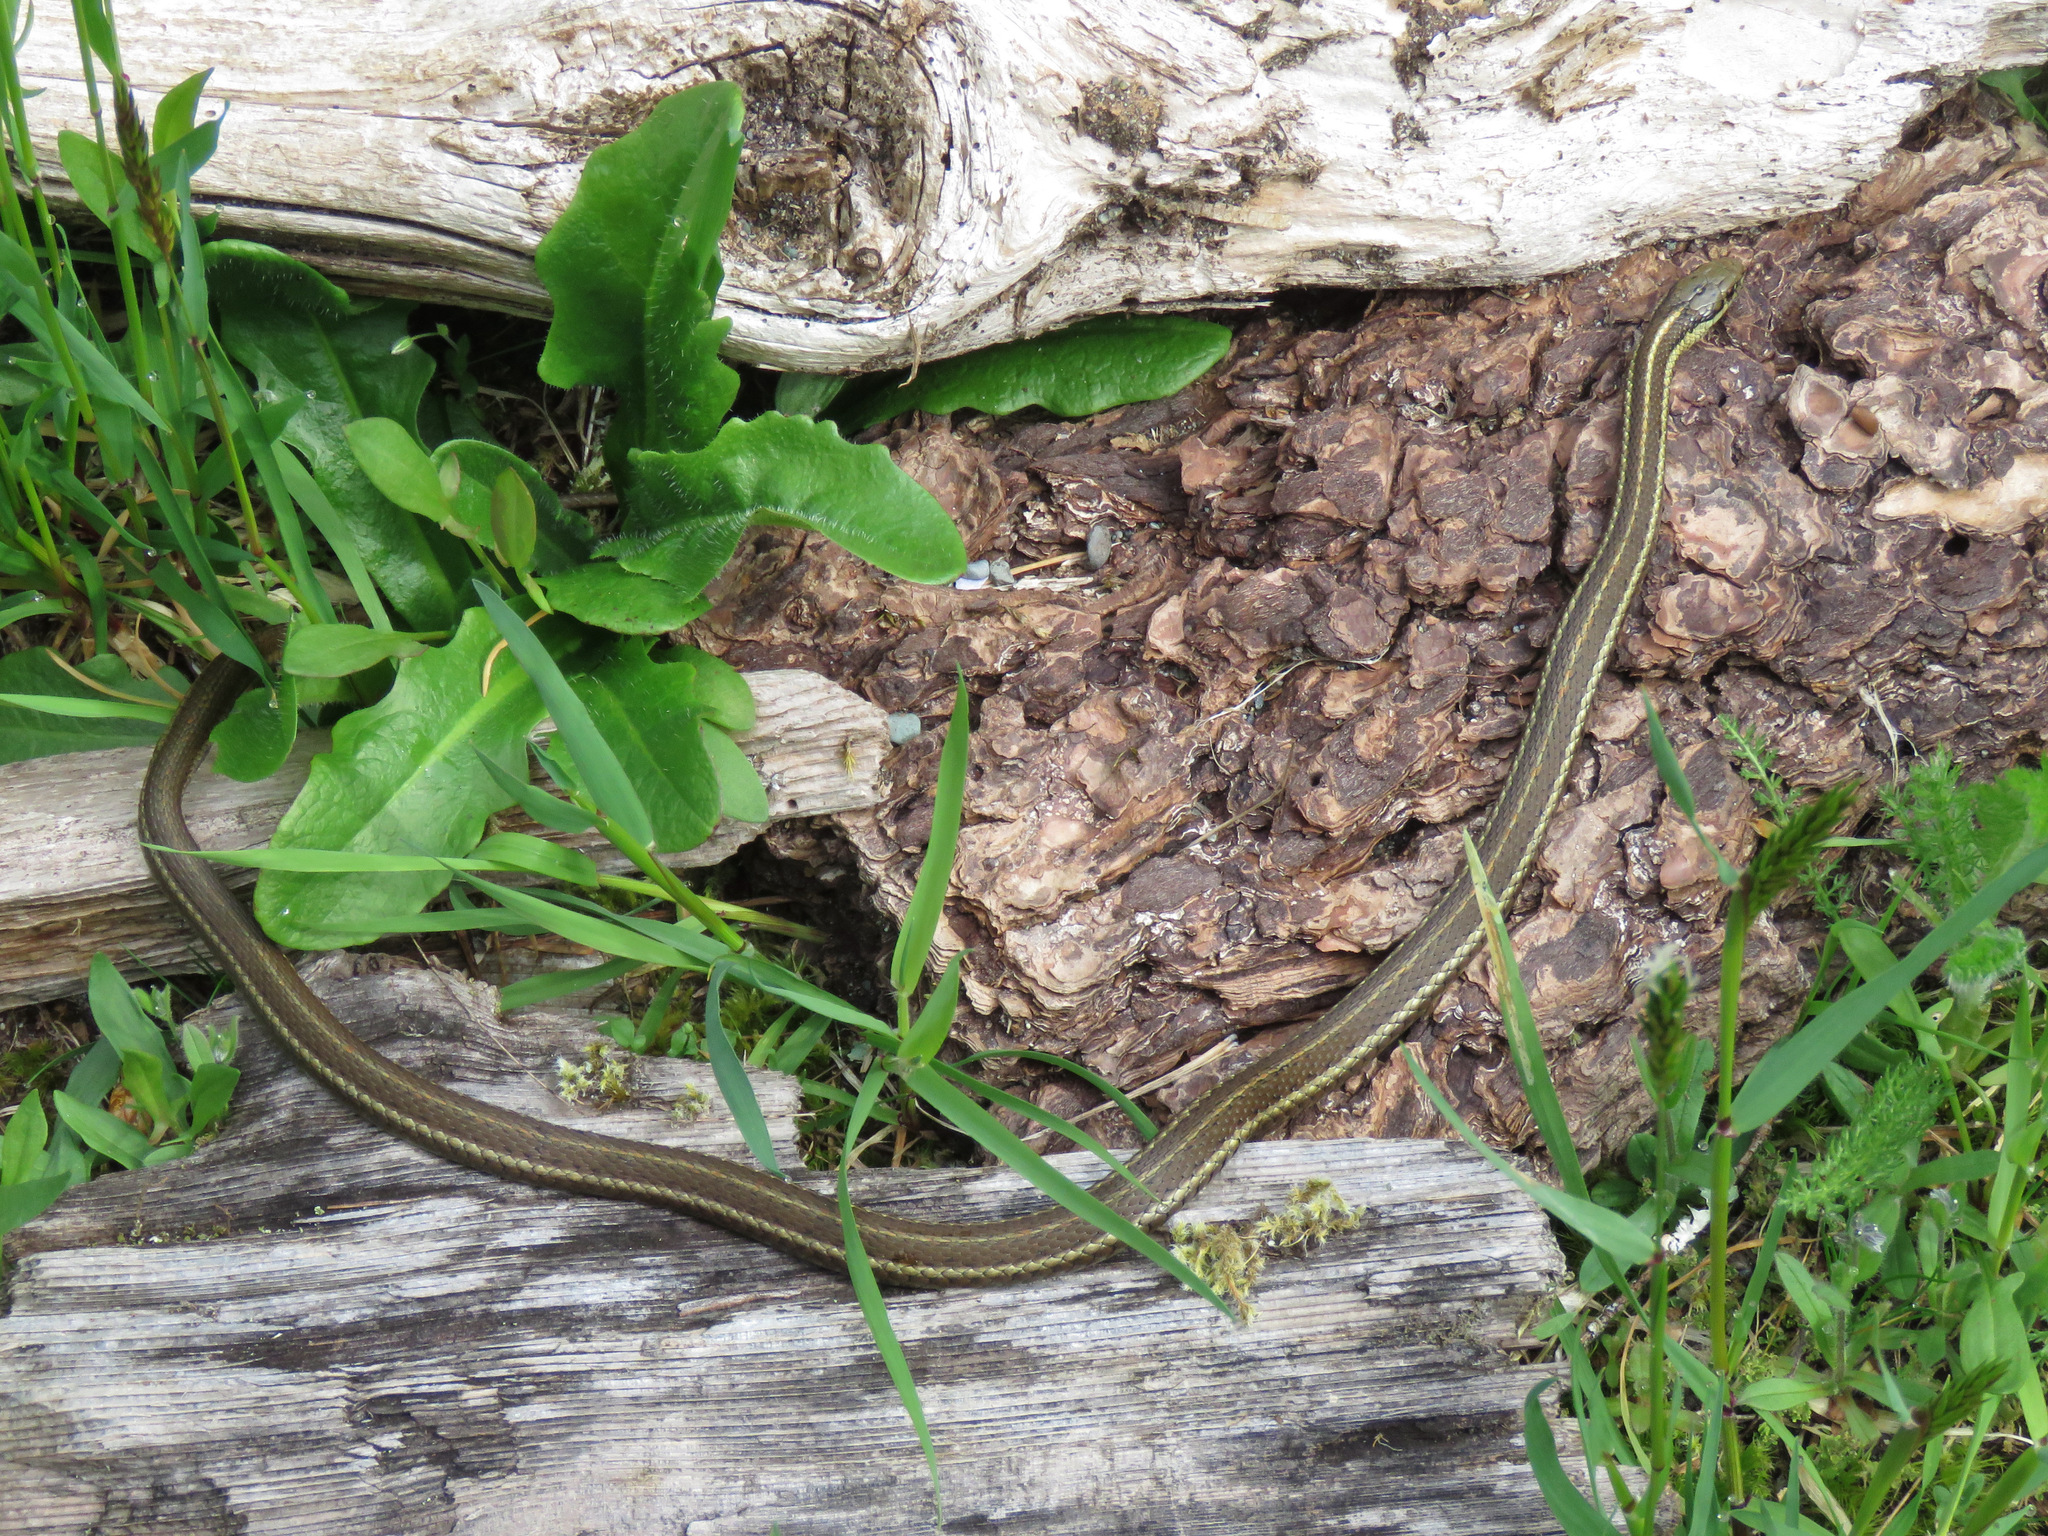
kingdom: Animalia
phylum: Chordata
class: Squamata
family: Colubridae
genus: Thamnophis
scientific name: Thamnophis ordinoides
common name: Northwestern garter snake
